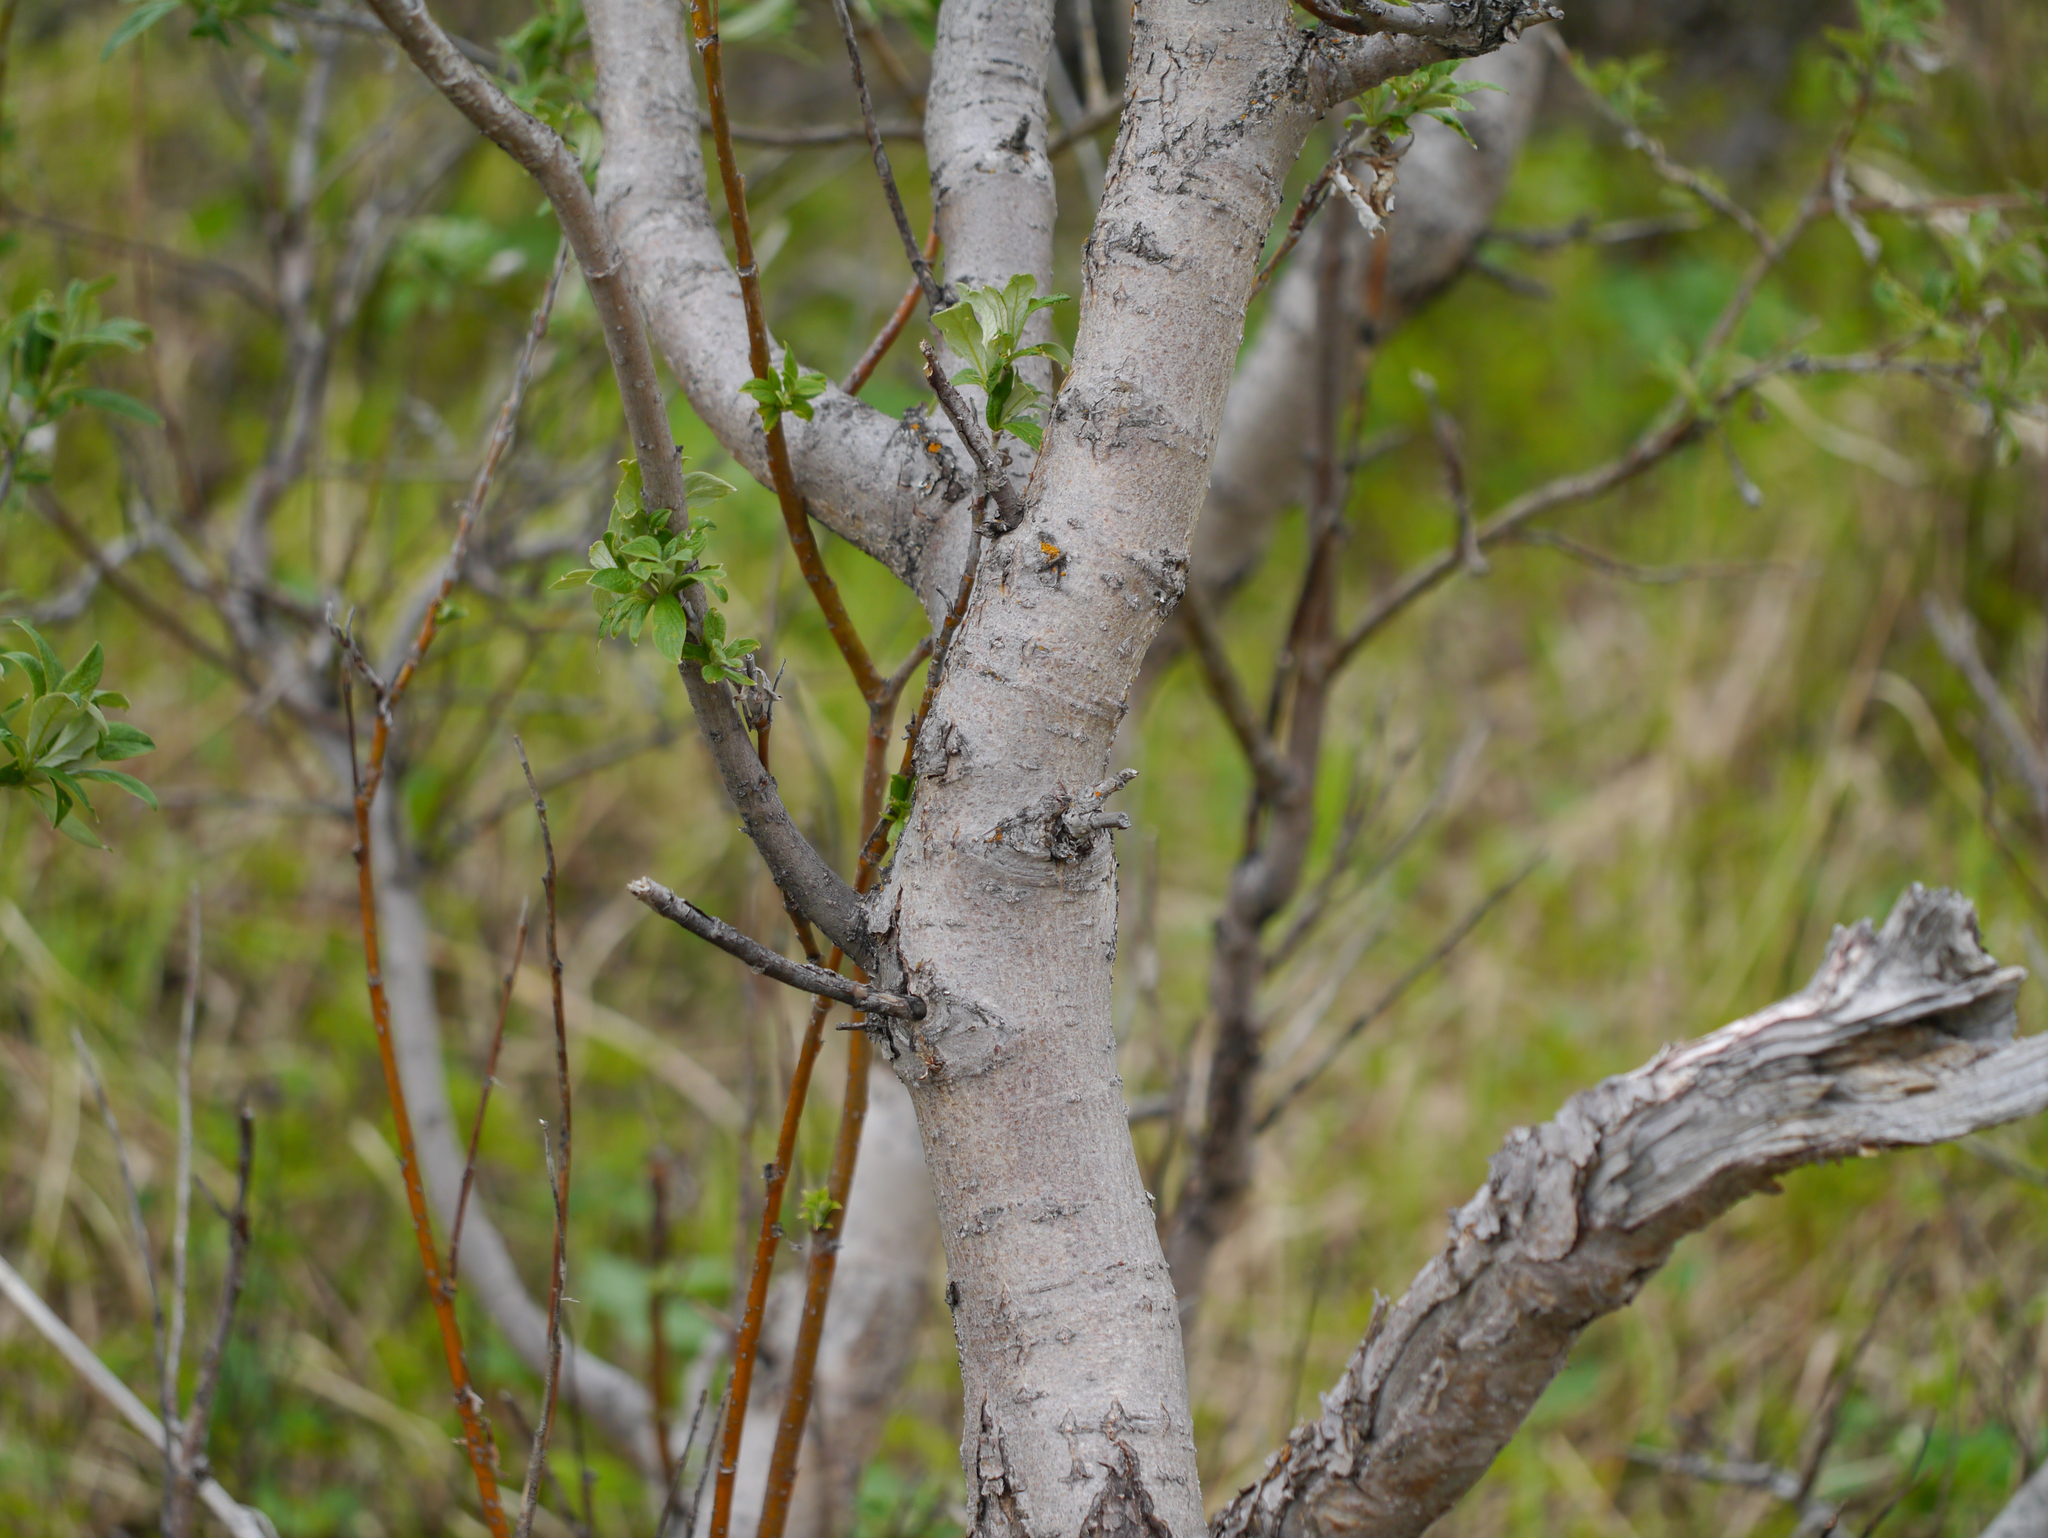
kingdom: Fungi
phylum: Ascomycota
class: Lecanoromycetes
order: Teloschistales
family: Teloschistaceae
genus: Oxneria
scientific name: Oxneria fallax
